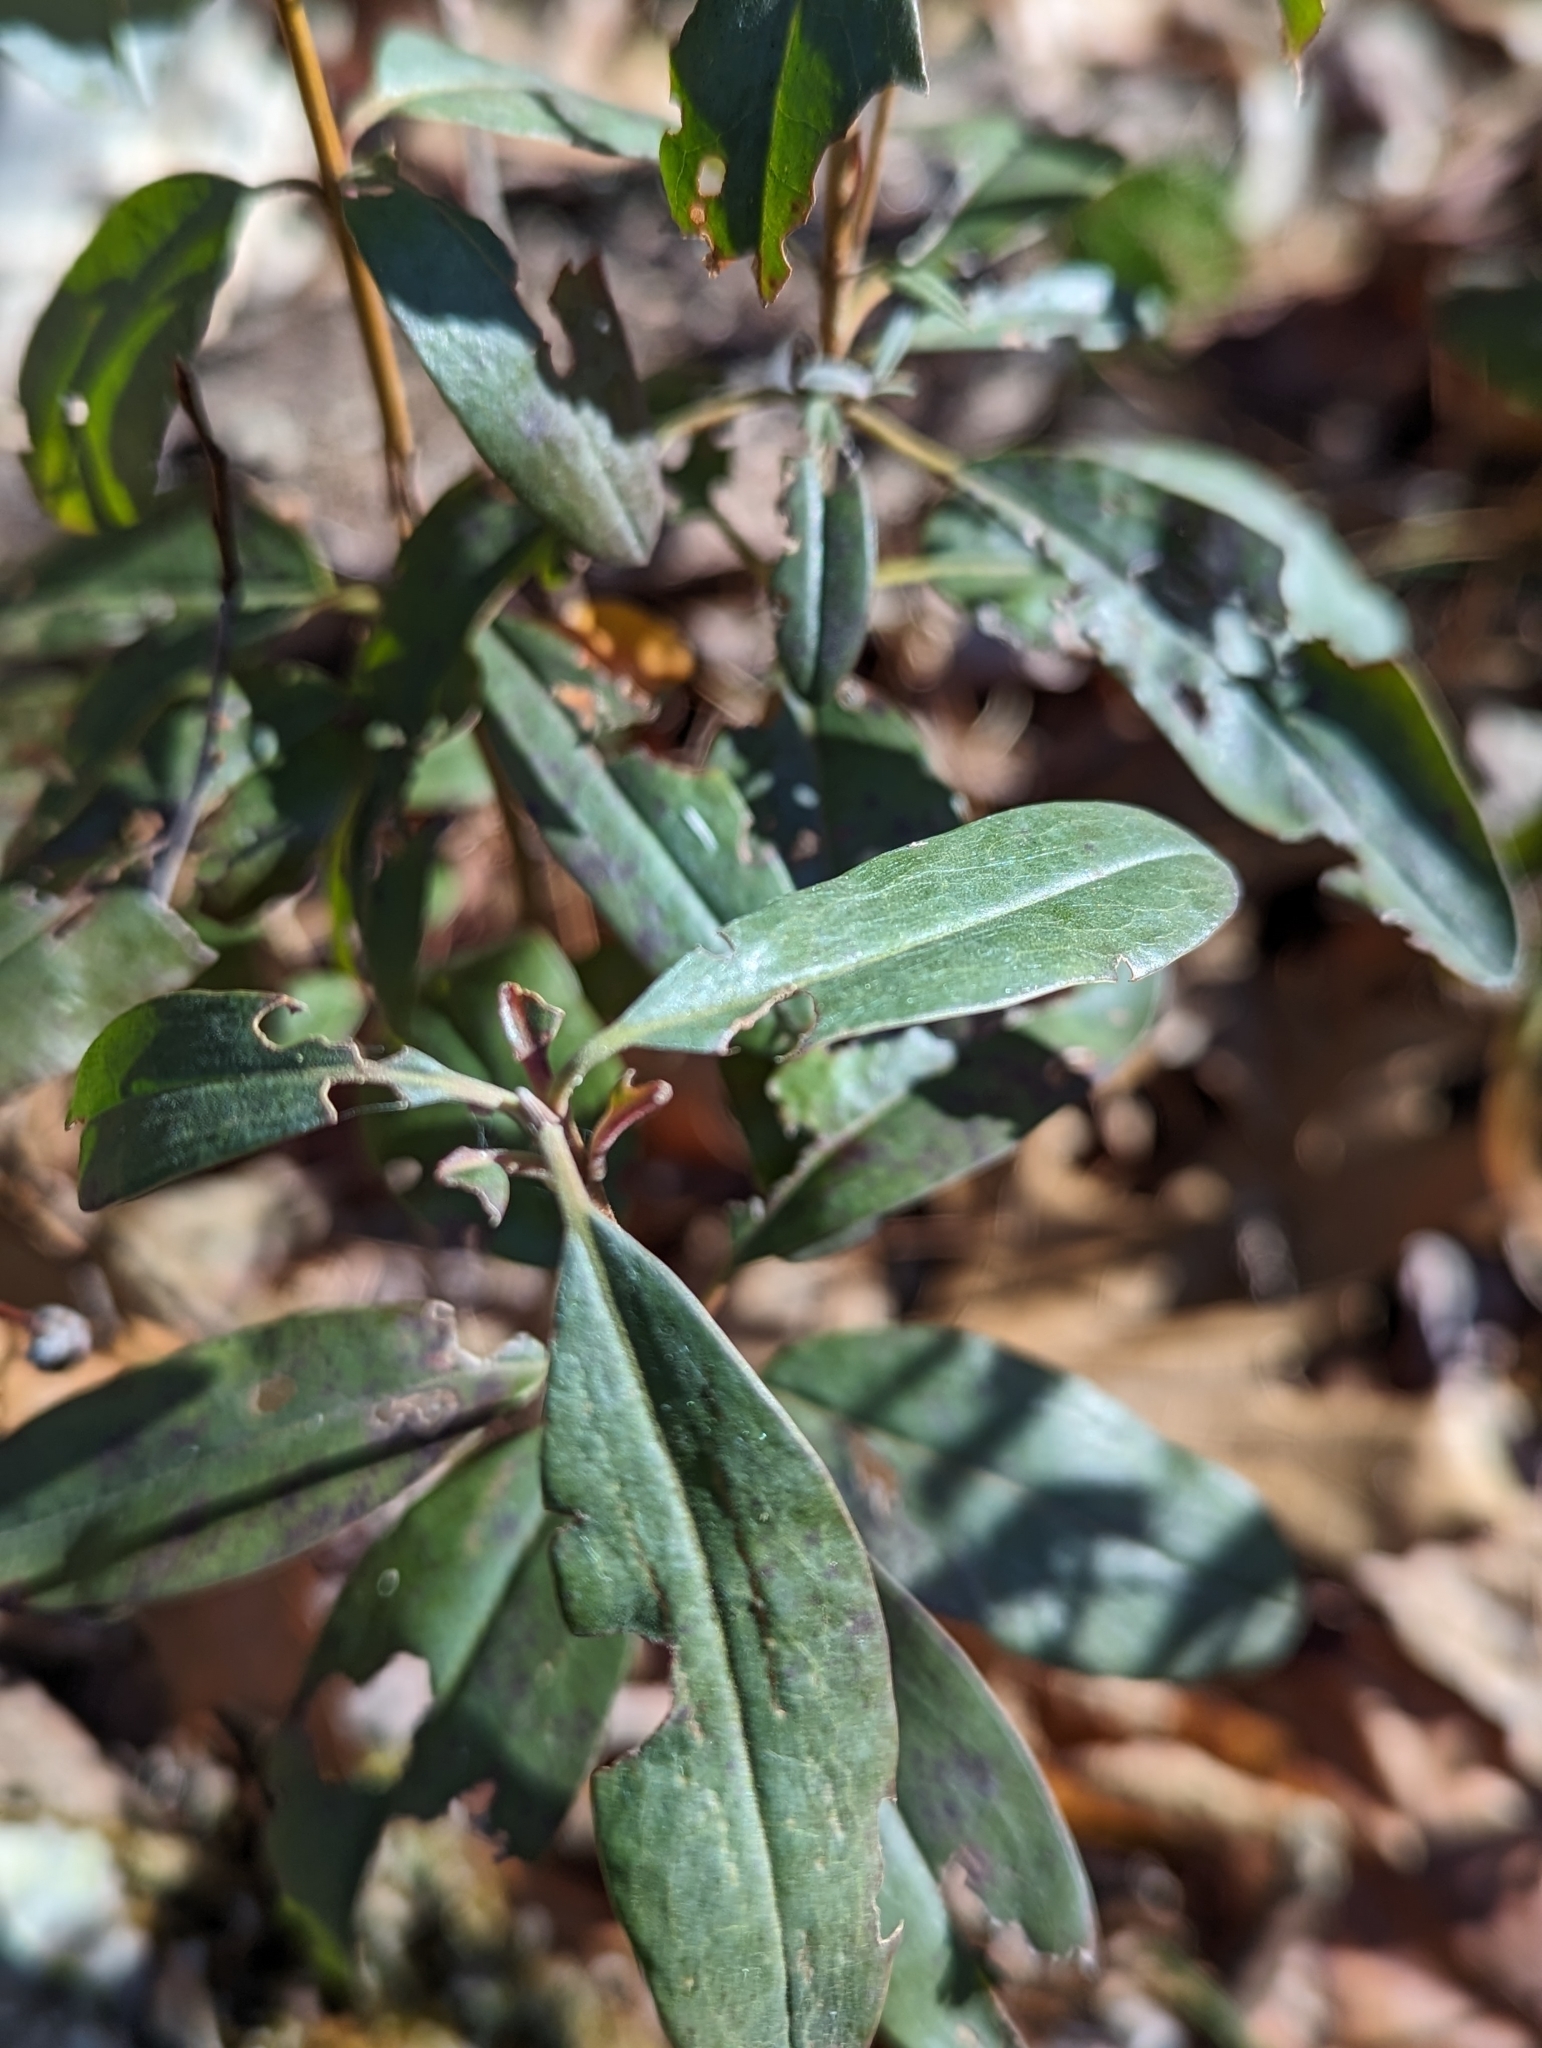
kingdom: Plantae
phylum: Tracheophyta
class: Magnoliopsida
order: Ericales
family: Ericaceae
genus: Kalmia
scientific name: Kalmia angustifolia
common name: Sheep-laurel
